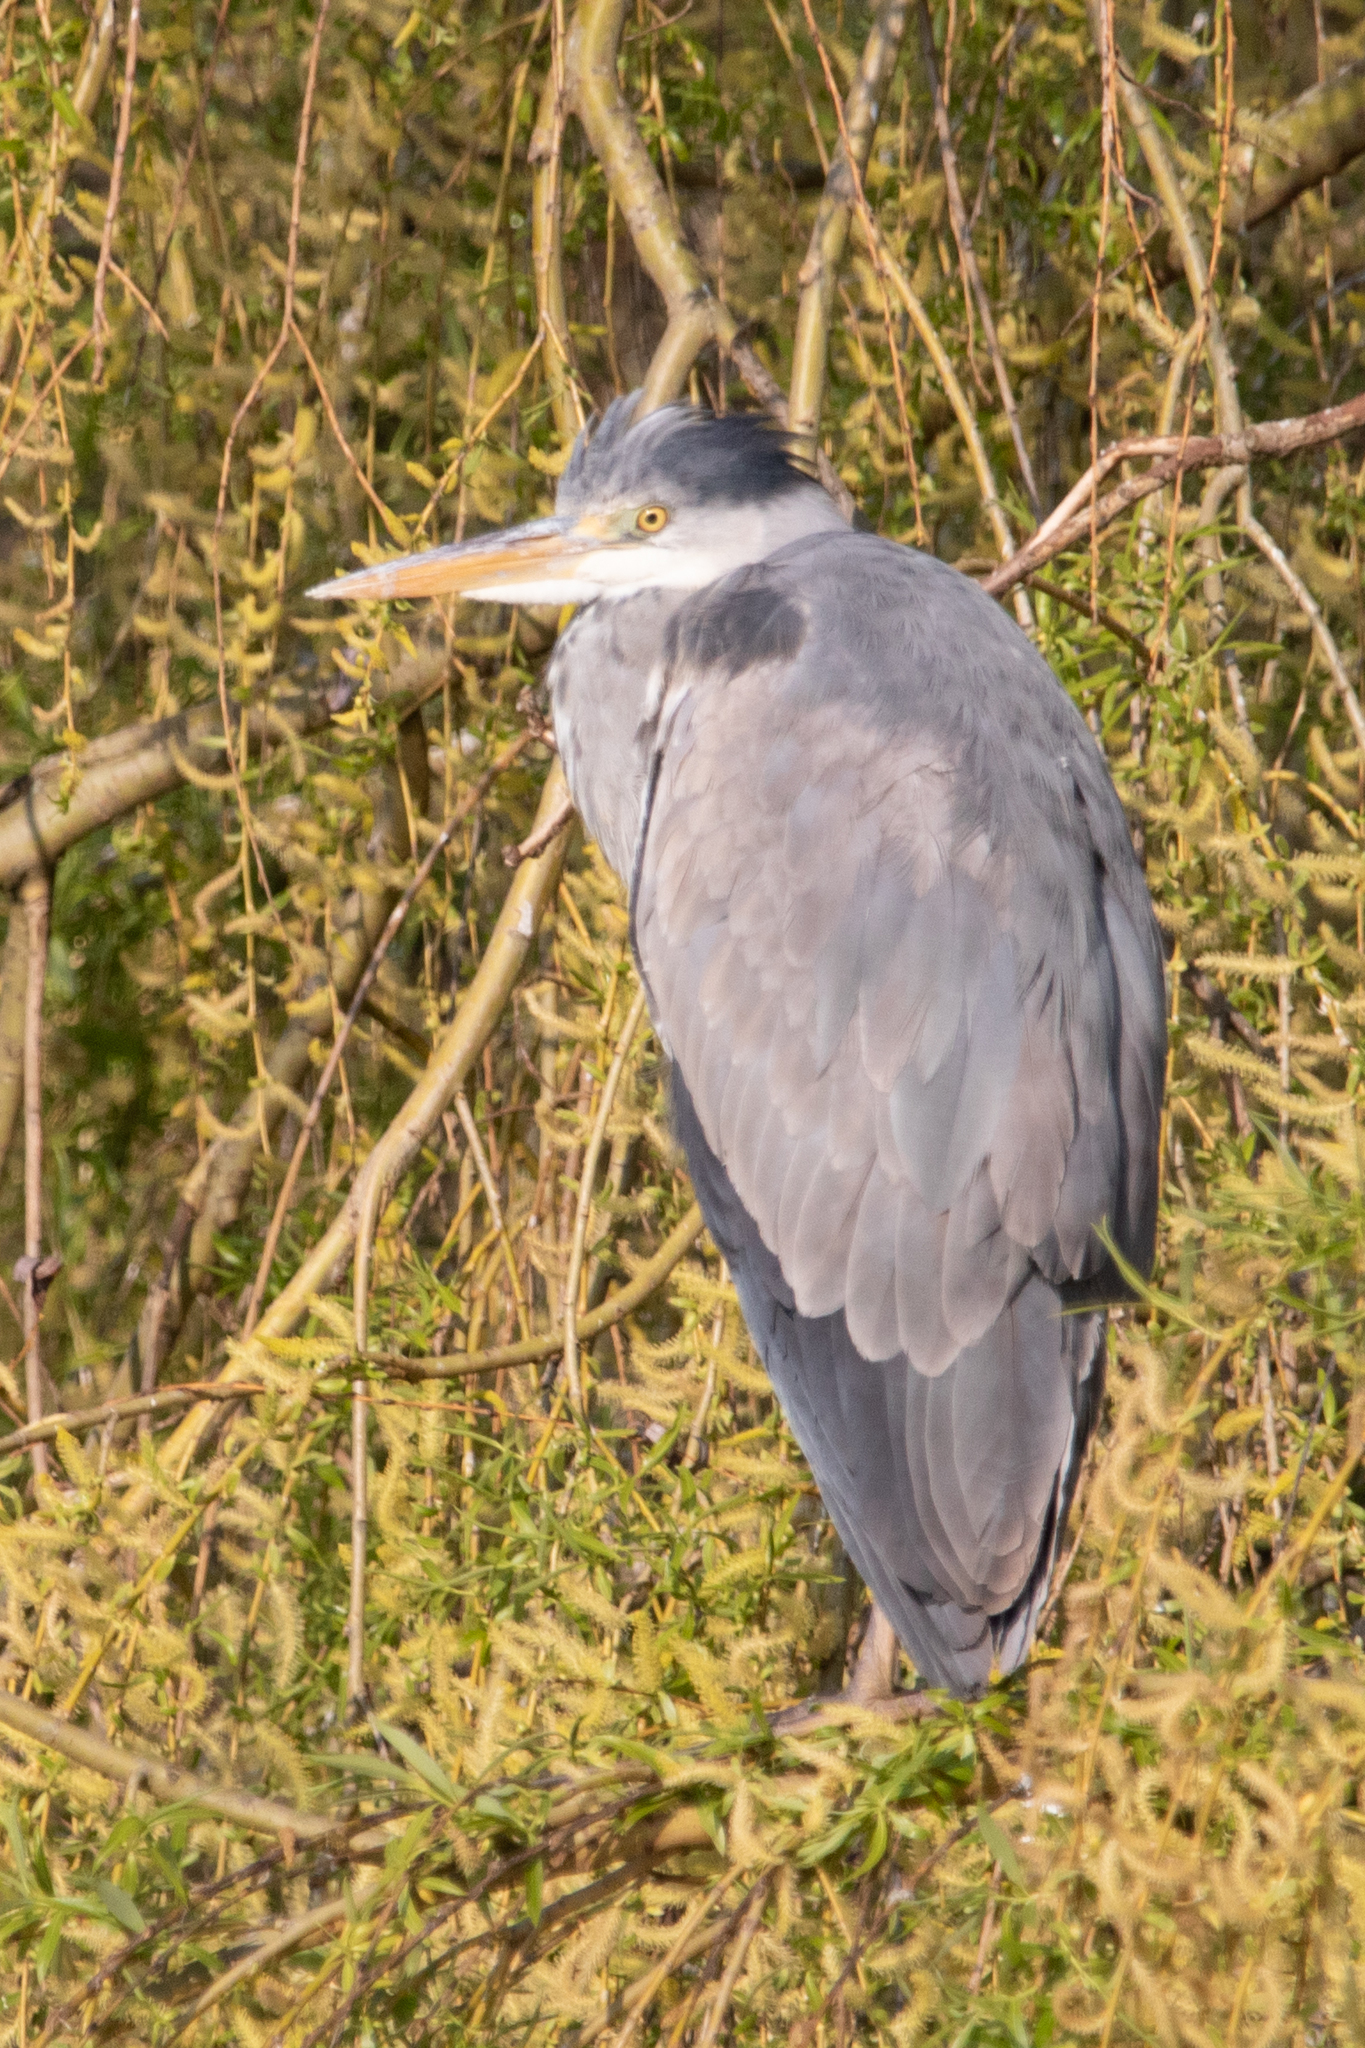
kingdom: Animalia
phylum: Chordata
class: Aves
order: Pelecaniformes
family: Ardeidae
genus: Ardea
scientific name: Ardea cinerea
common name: Grey heron
